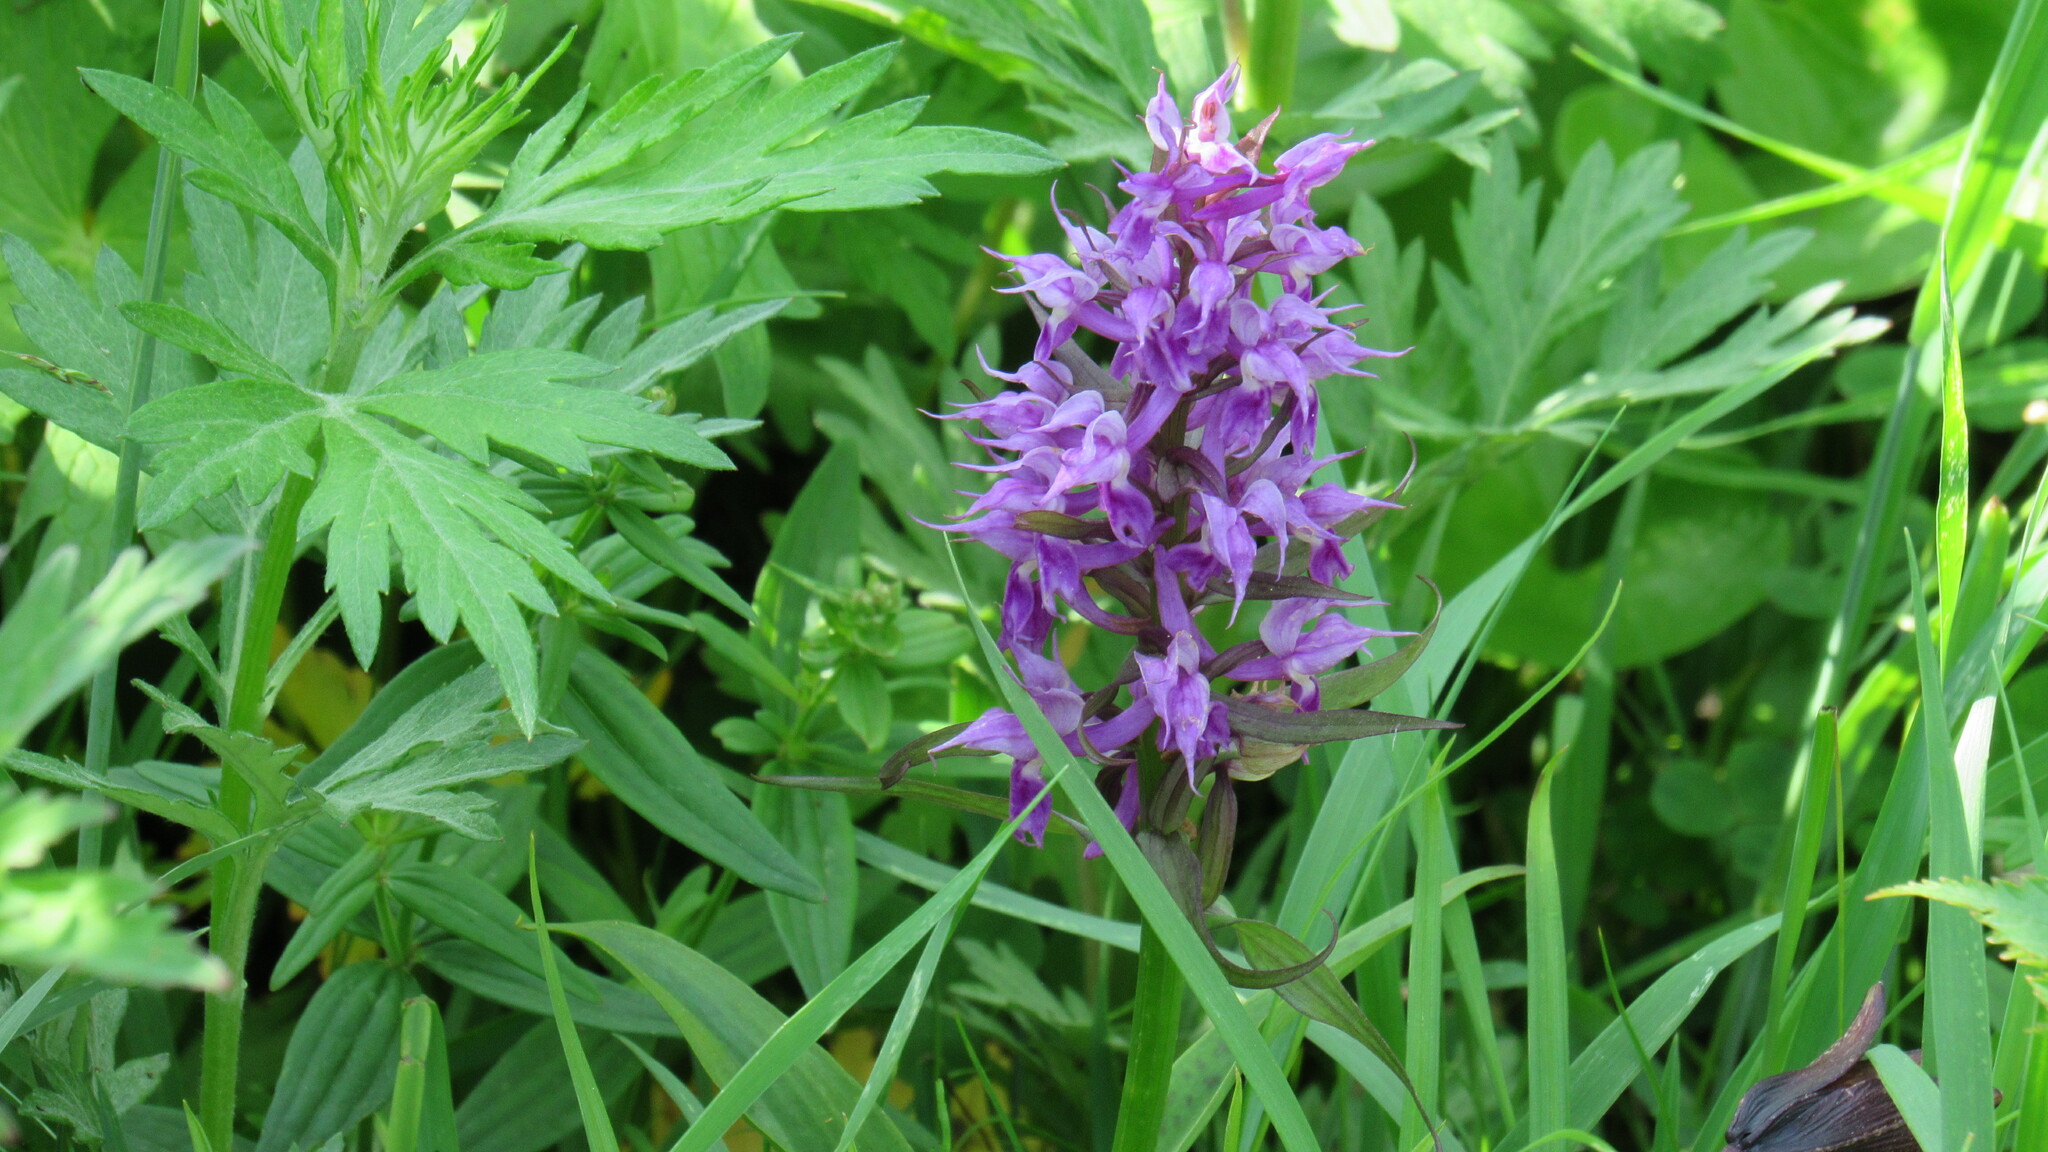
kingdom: Plantae
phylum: Tracheophyta
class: Liliopsida
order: Asparagales
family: Orchidaceae
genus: Dactylorhiza
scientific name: Dactylorhiza aristata
